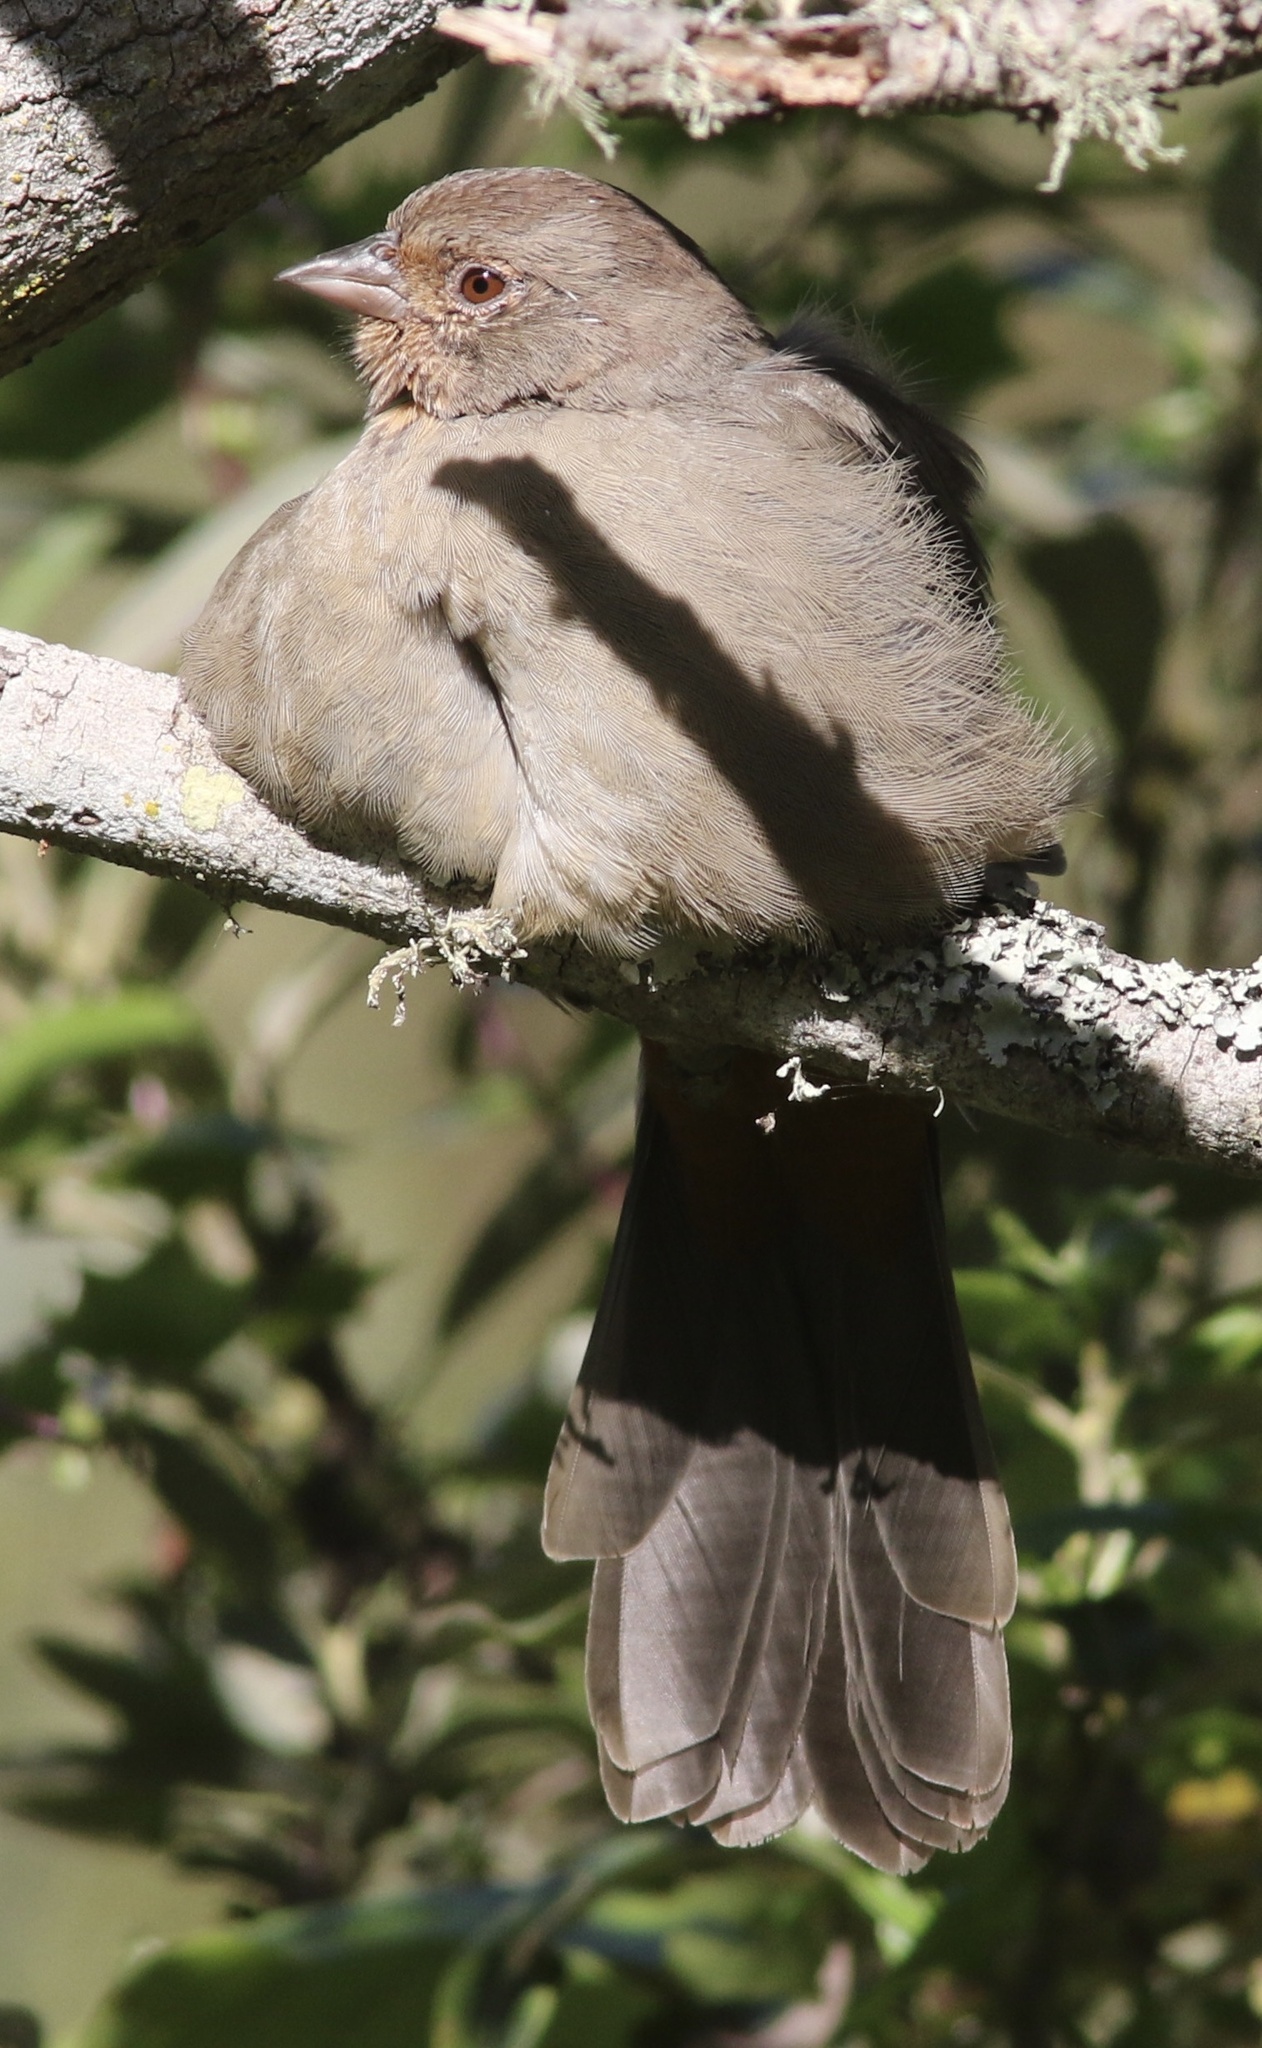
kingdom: Animalia
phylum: Chordata
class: Aves
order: Passeriformes
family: Passerellidae
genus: Melozone
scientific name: Melozone crissalis
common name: California towhee
